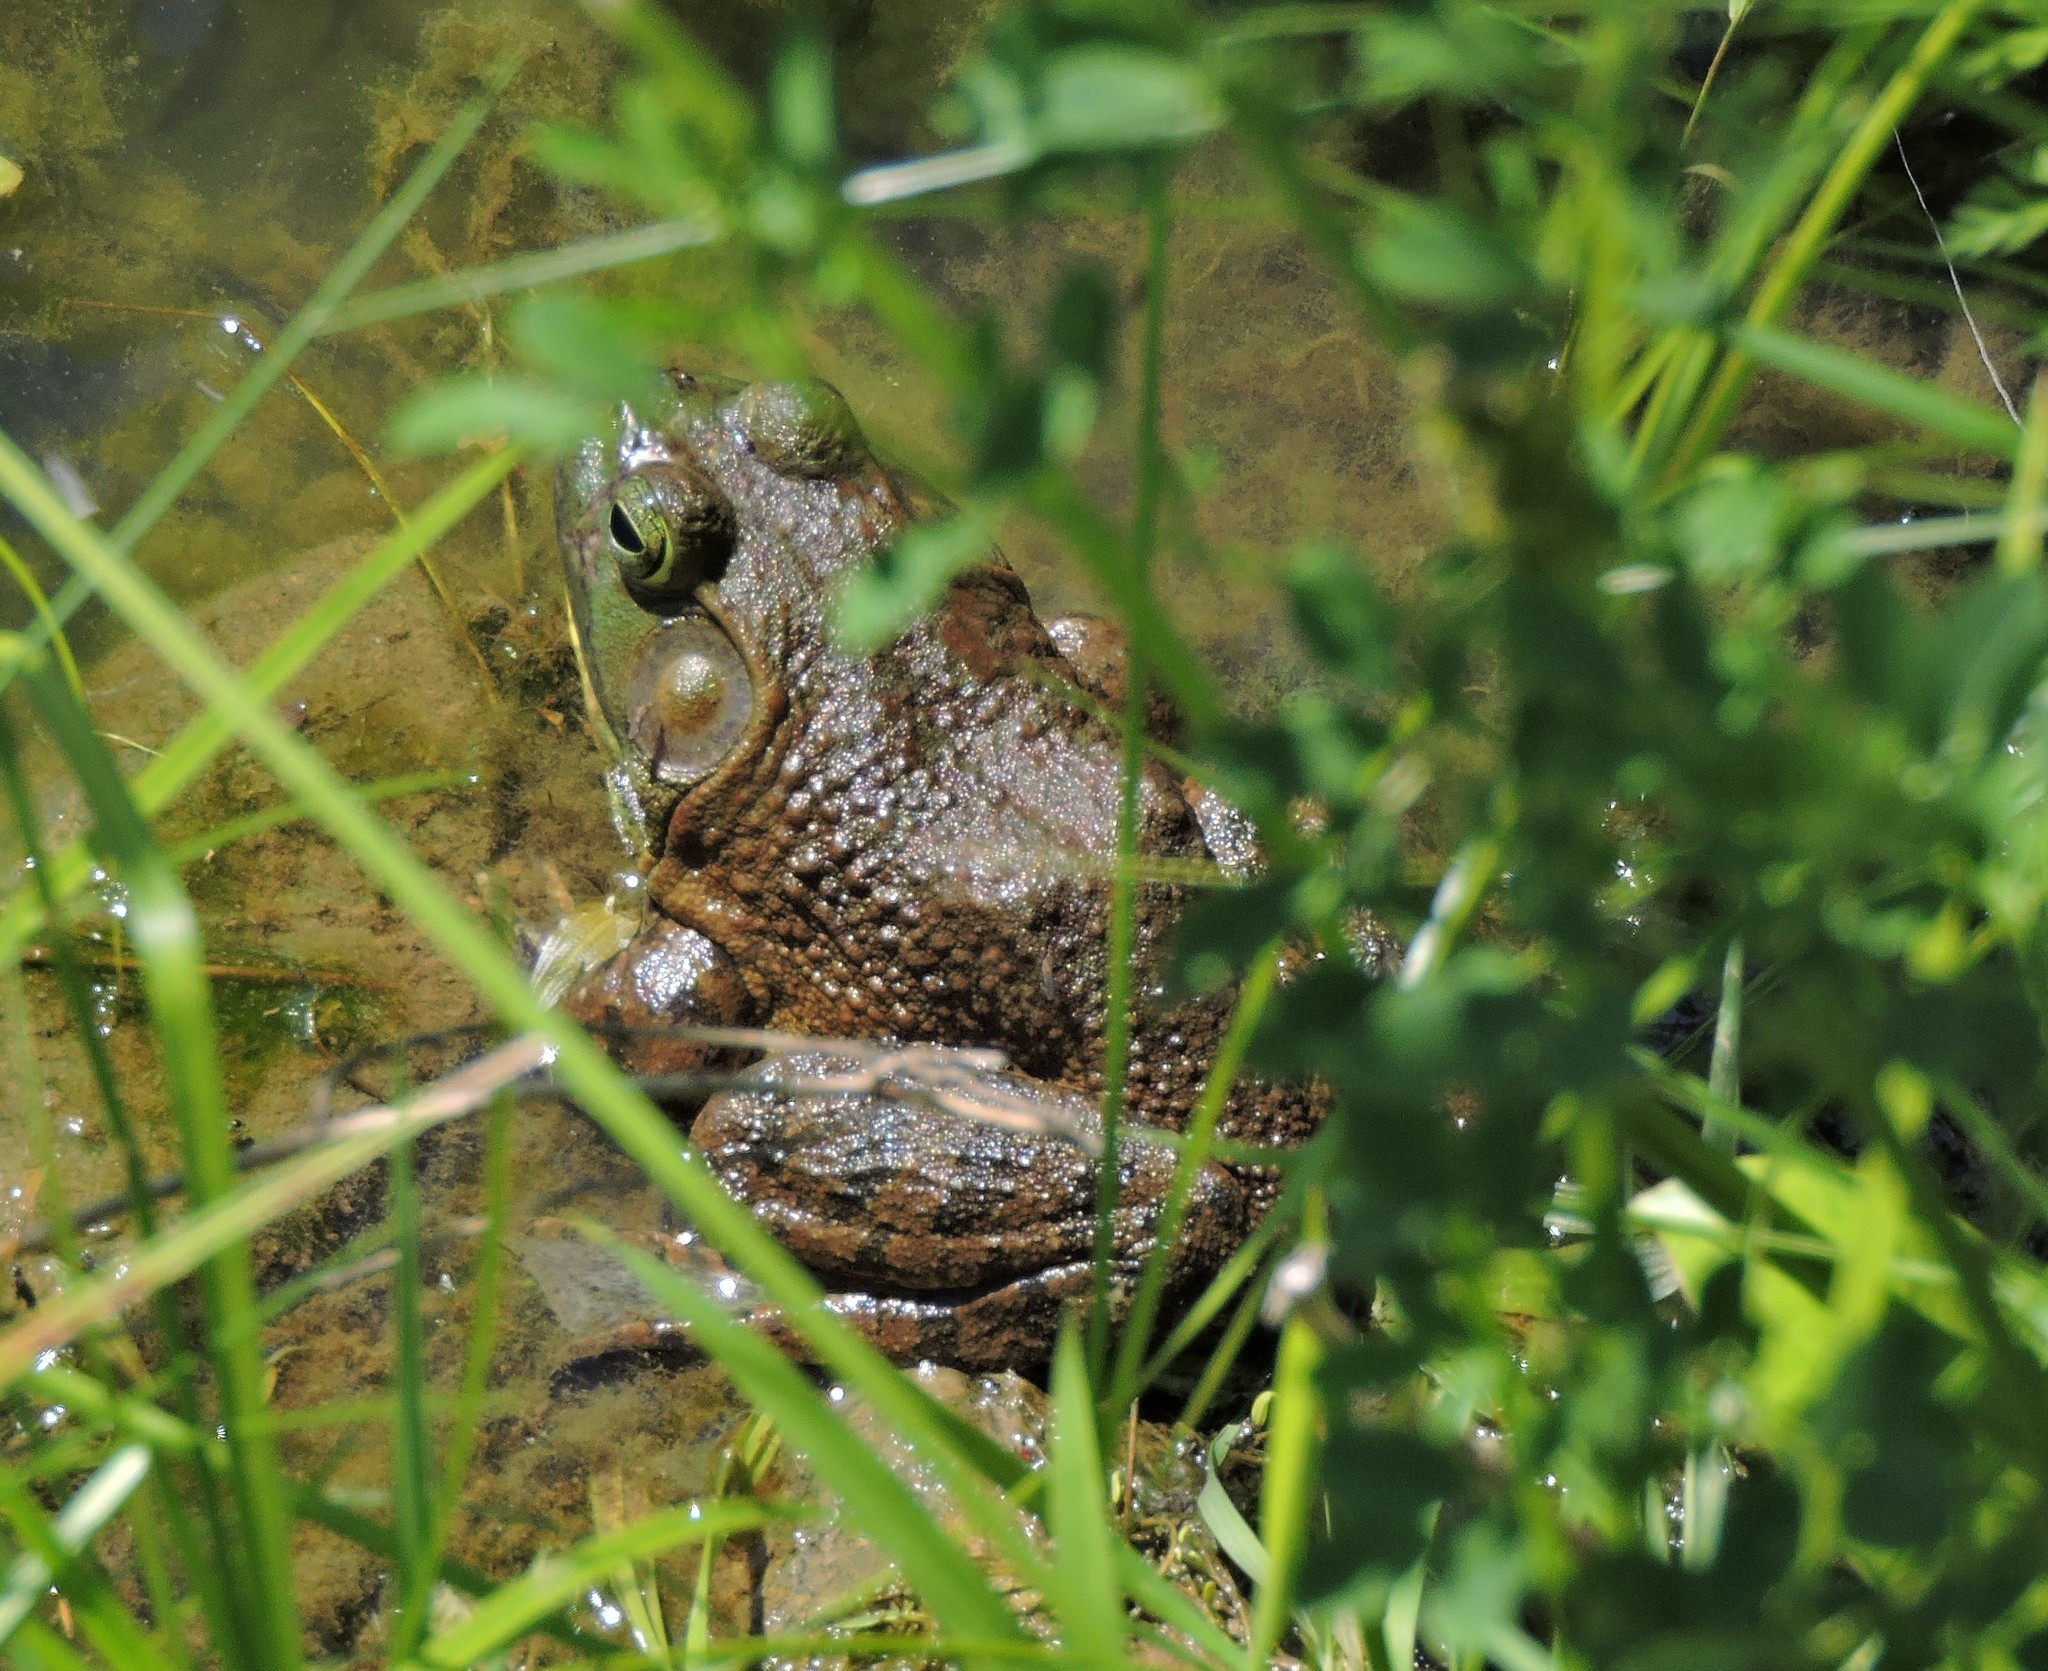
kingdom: Animalia
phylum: Chordata
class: Amphibia
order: Anura
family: Ranidae
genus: Lithobates
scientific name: Lithobates catesbeianus
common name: American bullfrog
